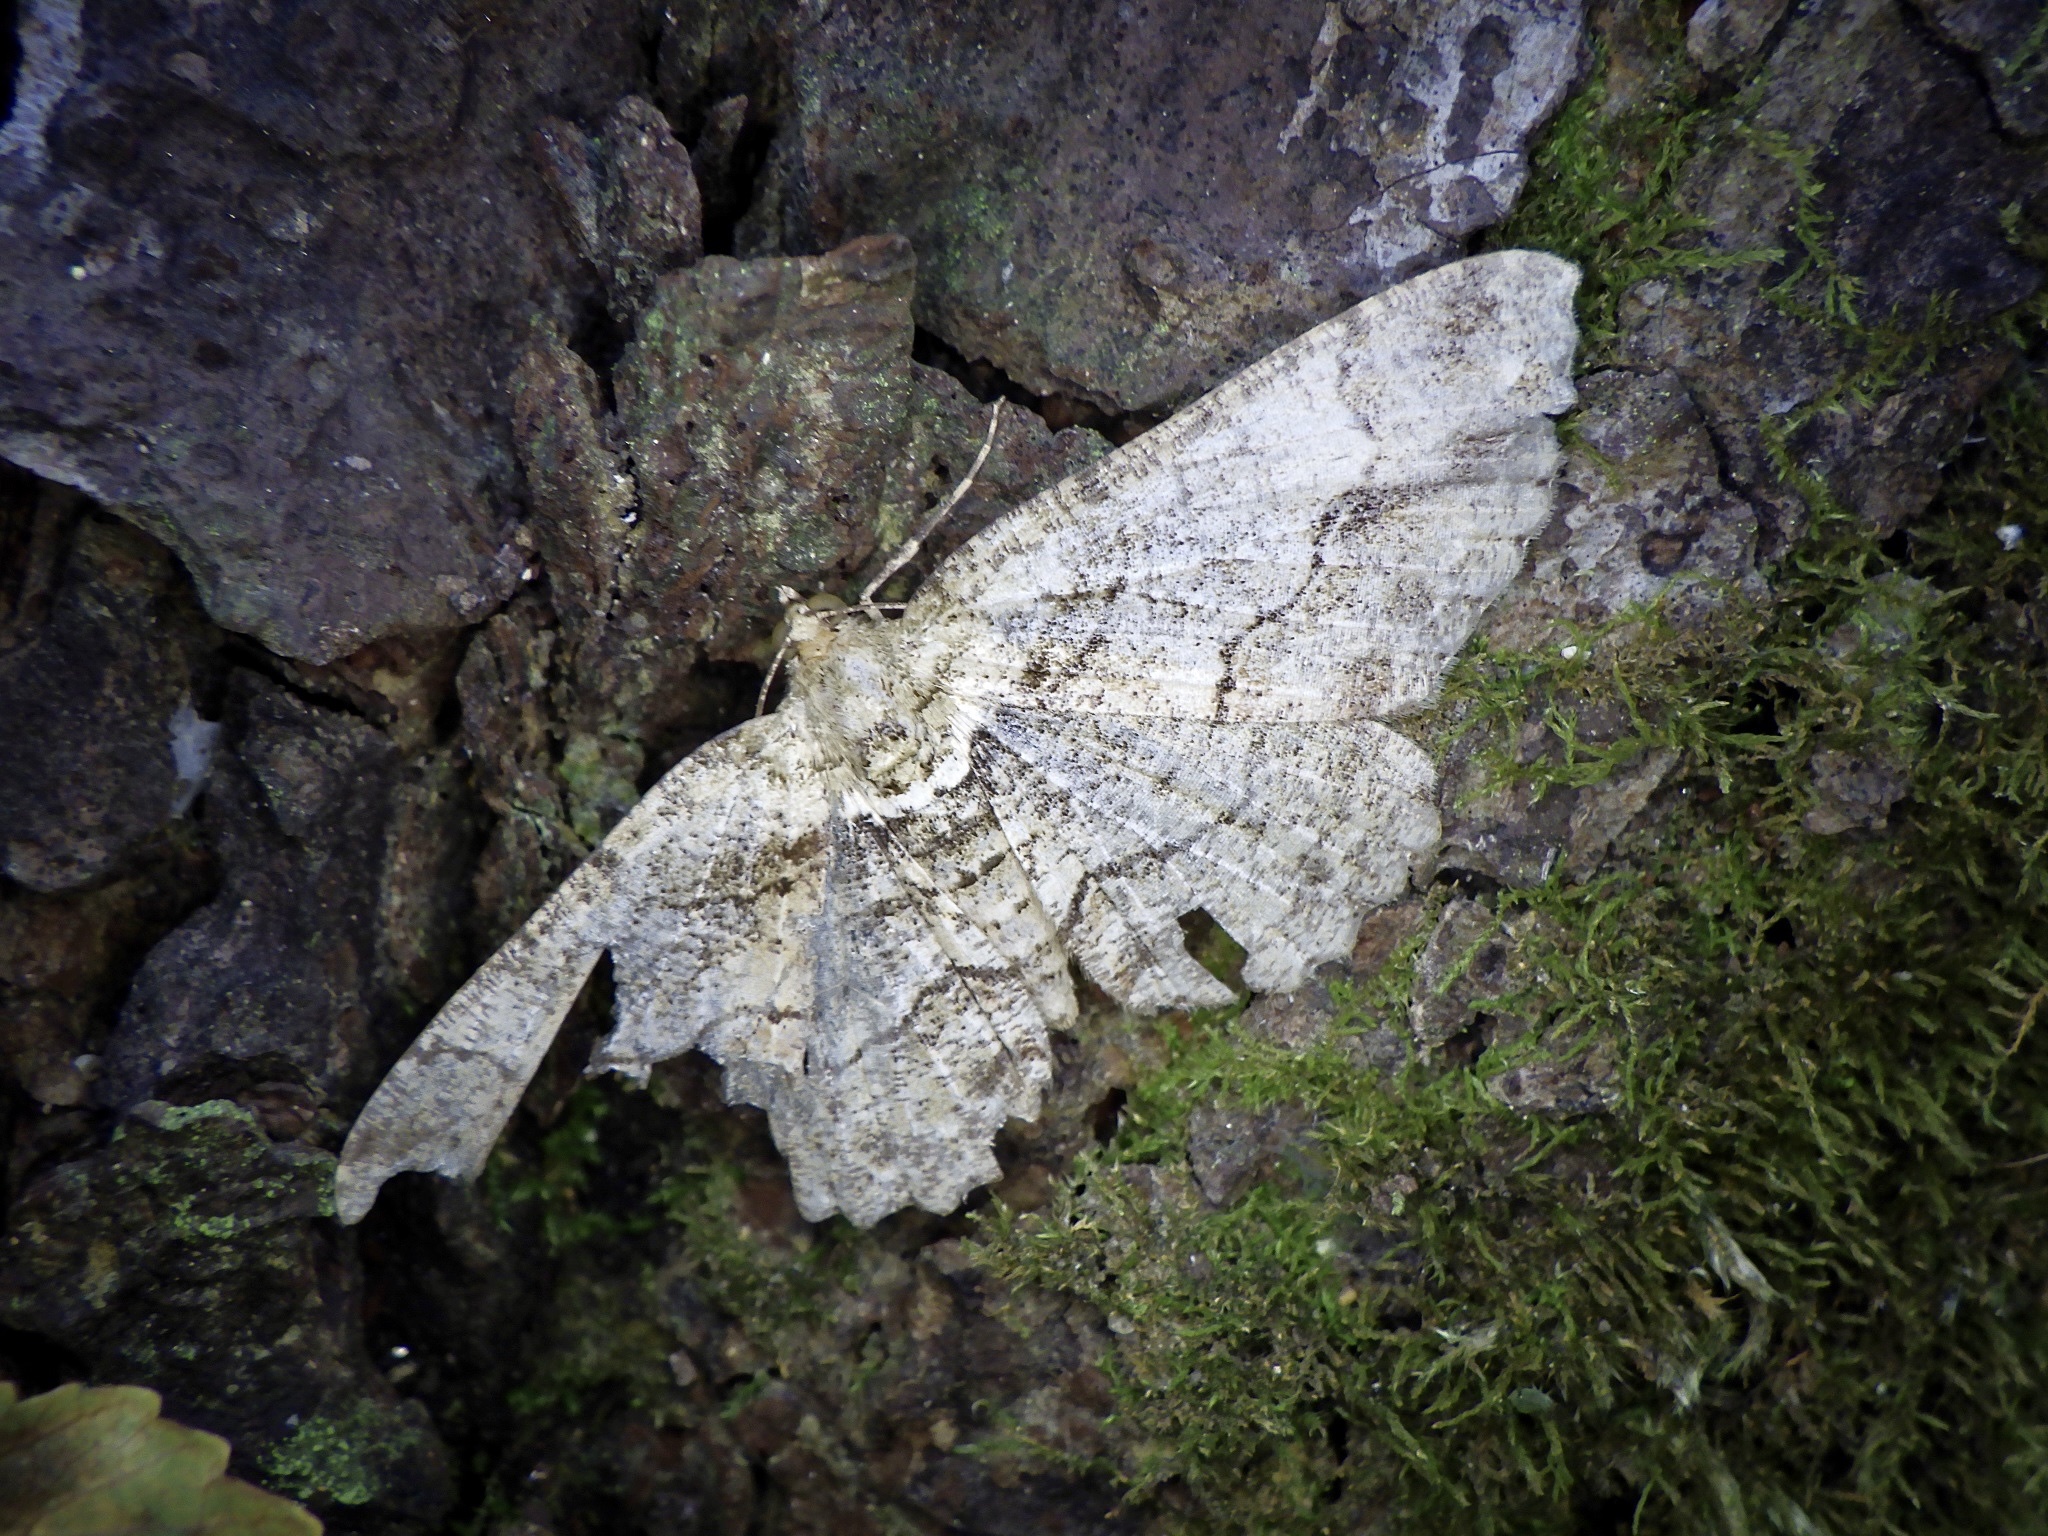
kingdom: Animalia
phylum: Arthropoda
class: Insecta
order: Lepidoptera
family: Geometridae
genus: Paradarisa
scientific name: Paradarisa chloauges
